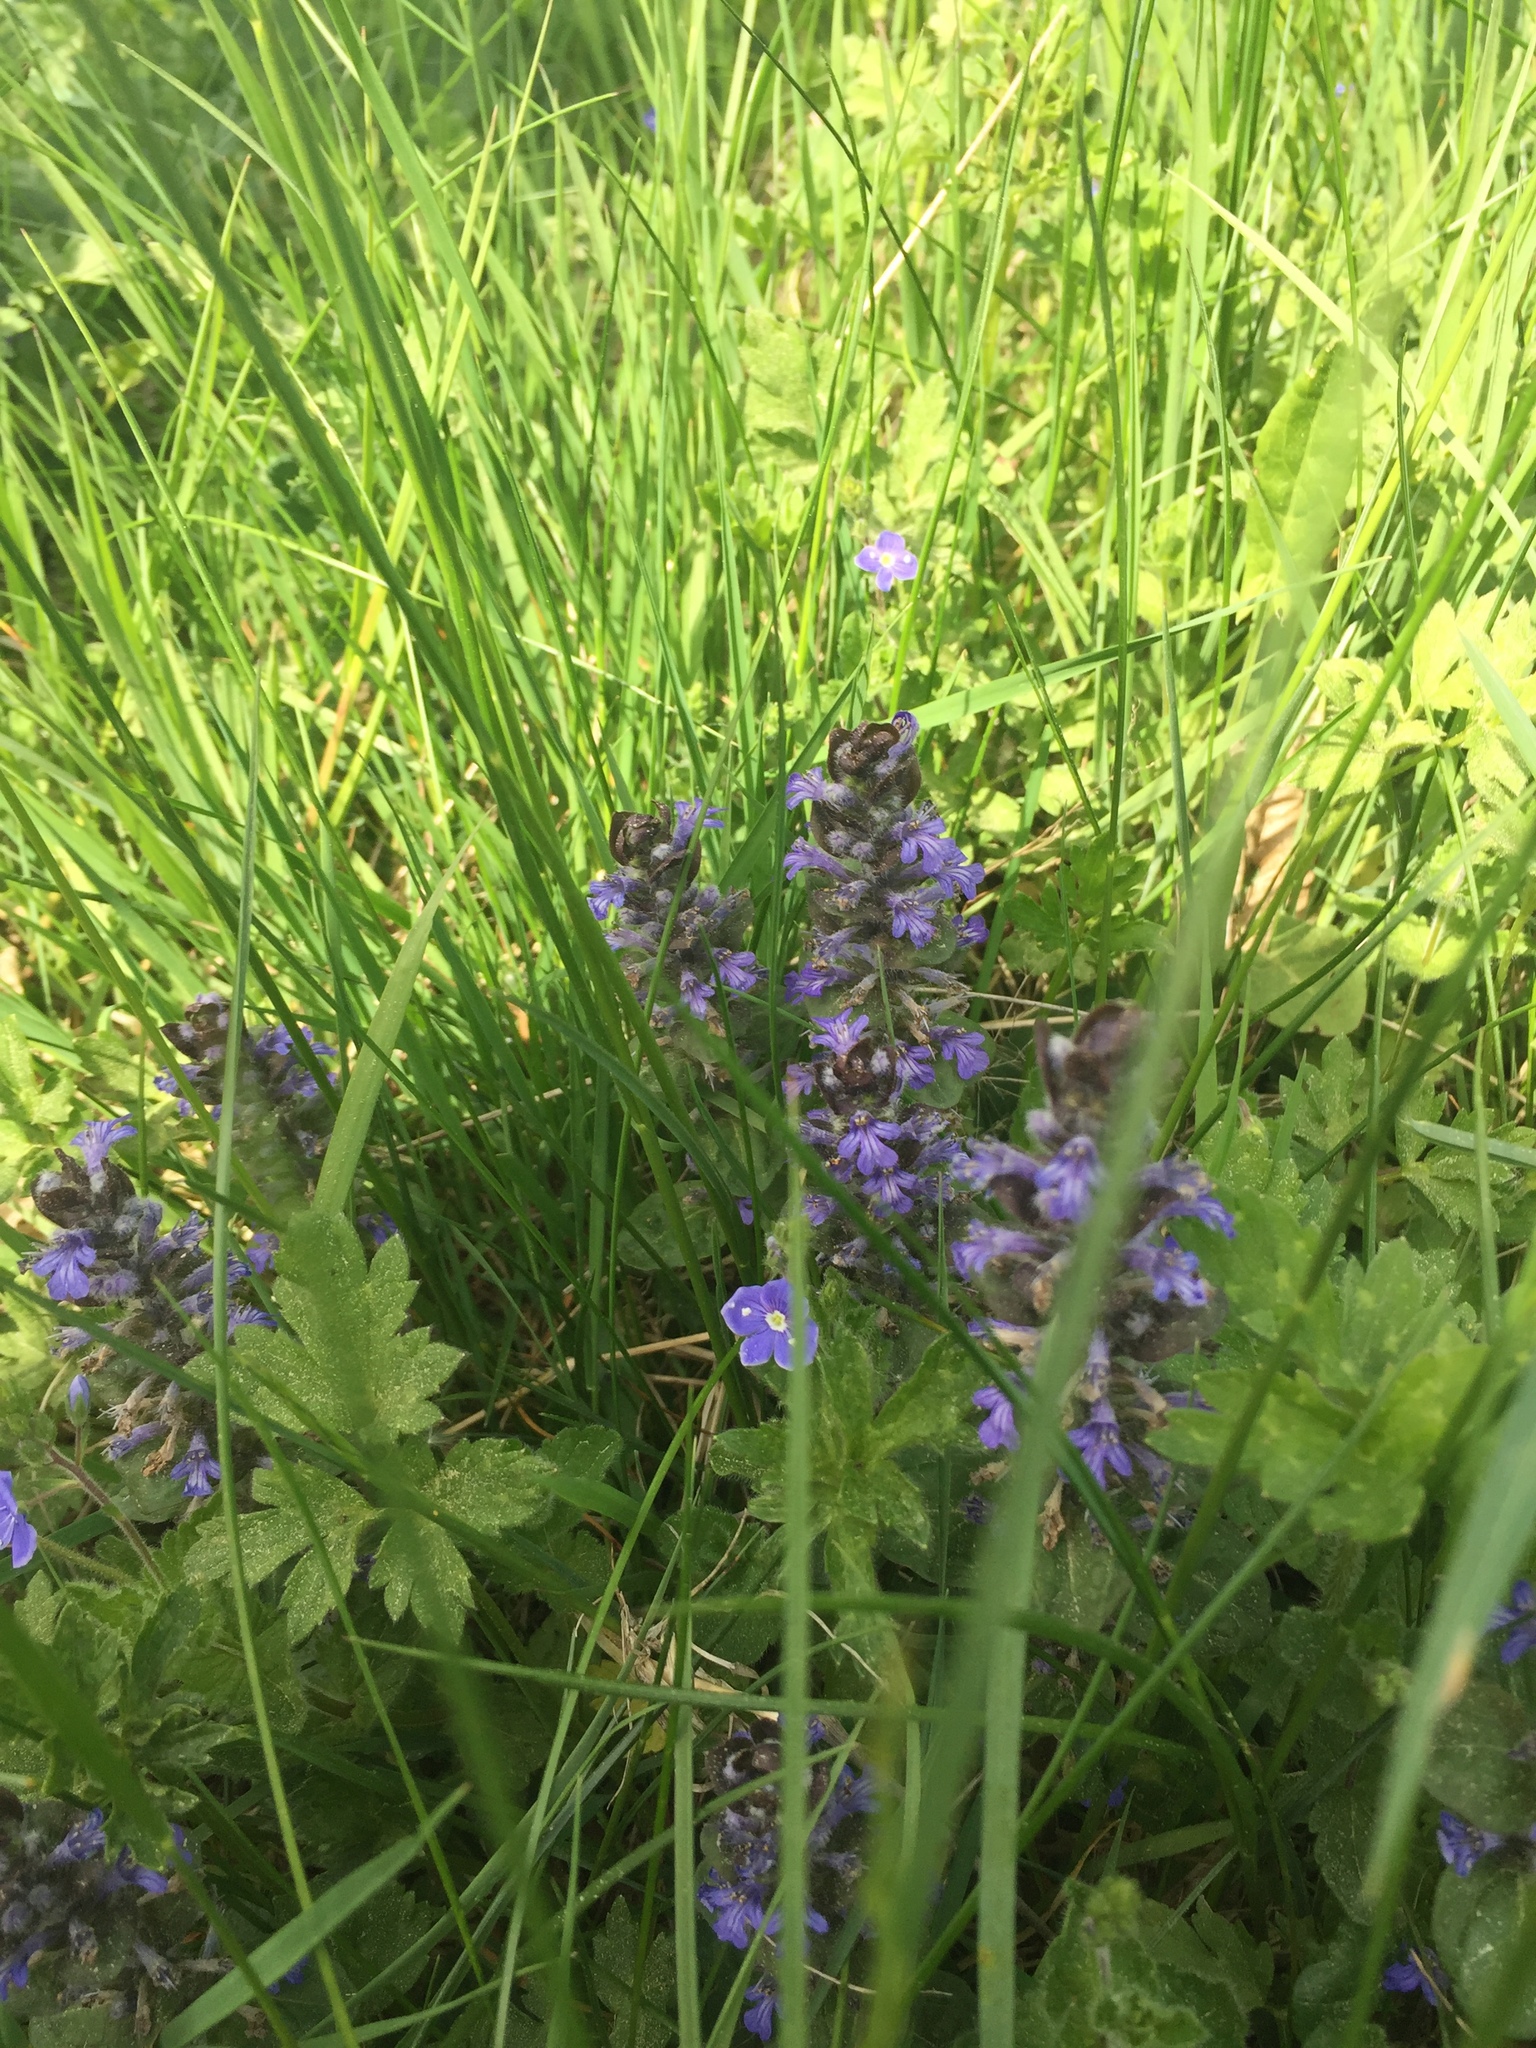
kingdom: Plantae
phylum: Tracheophyta
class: Magnoliopsida
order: Lamiales
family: Lamiaceae
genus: Ajuga
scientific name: Ajuga reptans
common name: Bugle
